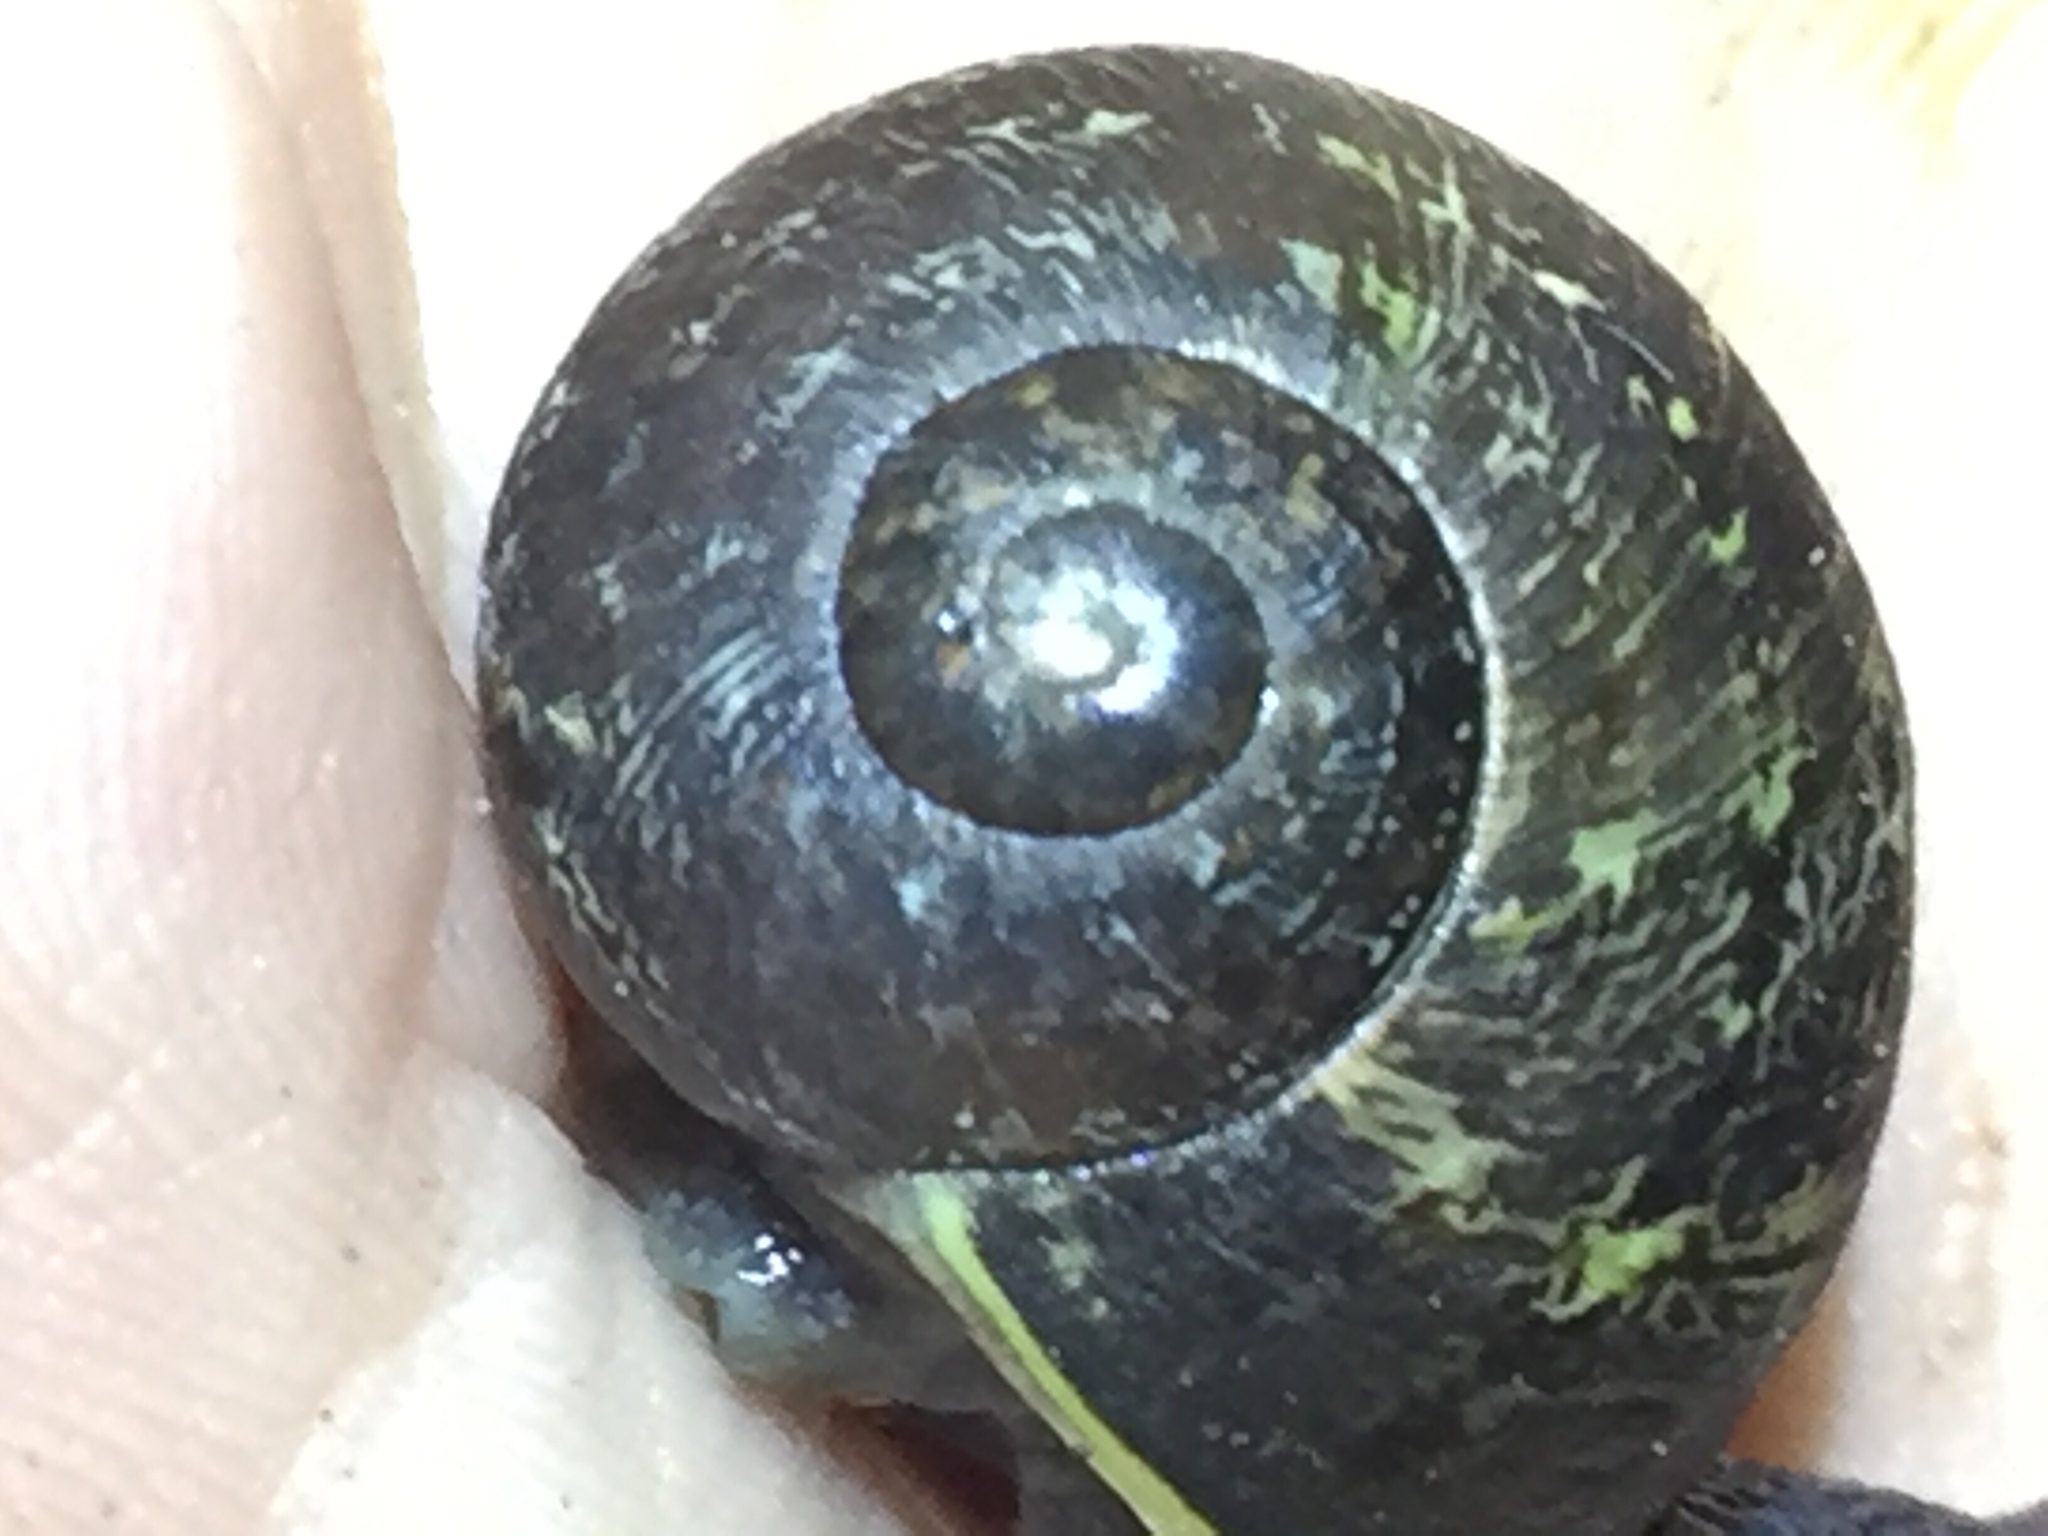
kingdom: Animalia
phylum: Mollusca
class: Gastropoda
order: Stylommatophora
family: Helicidae
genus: Cornu
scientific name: Cornu aspersum
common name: Brown garden snail
